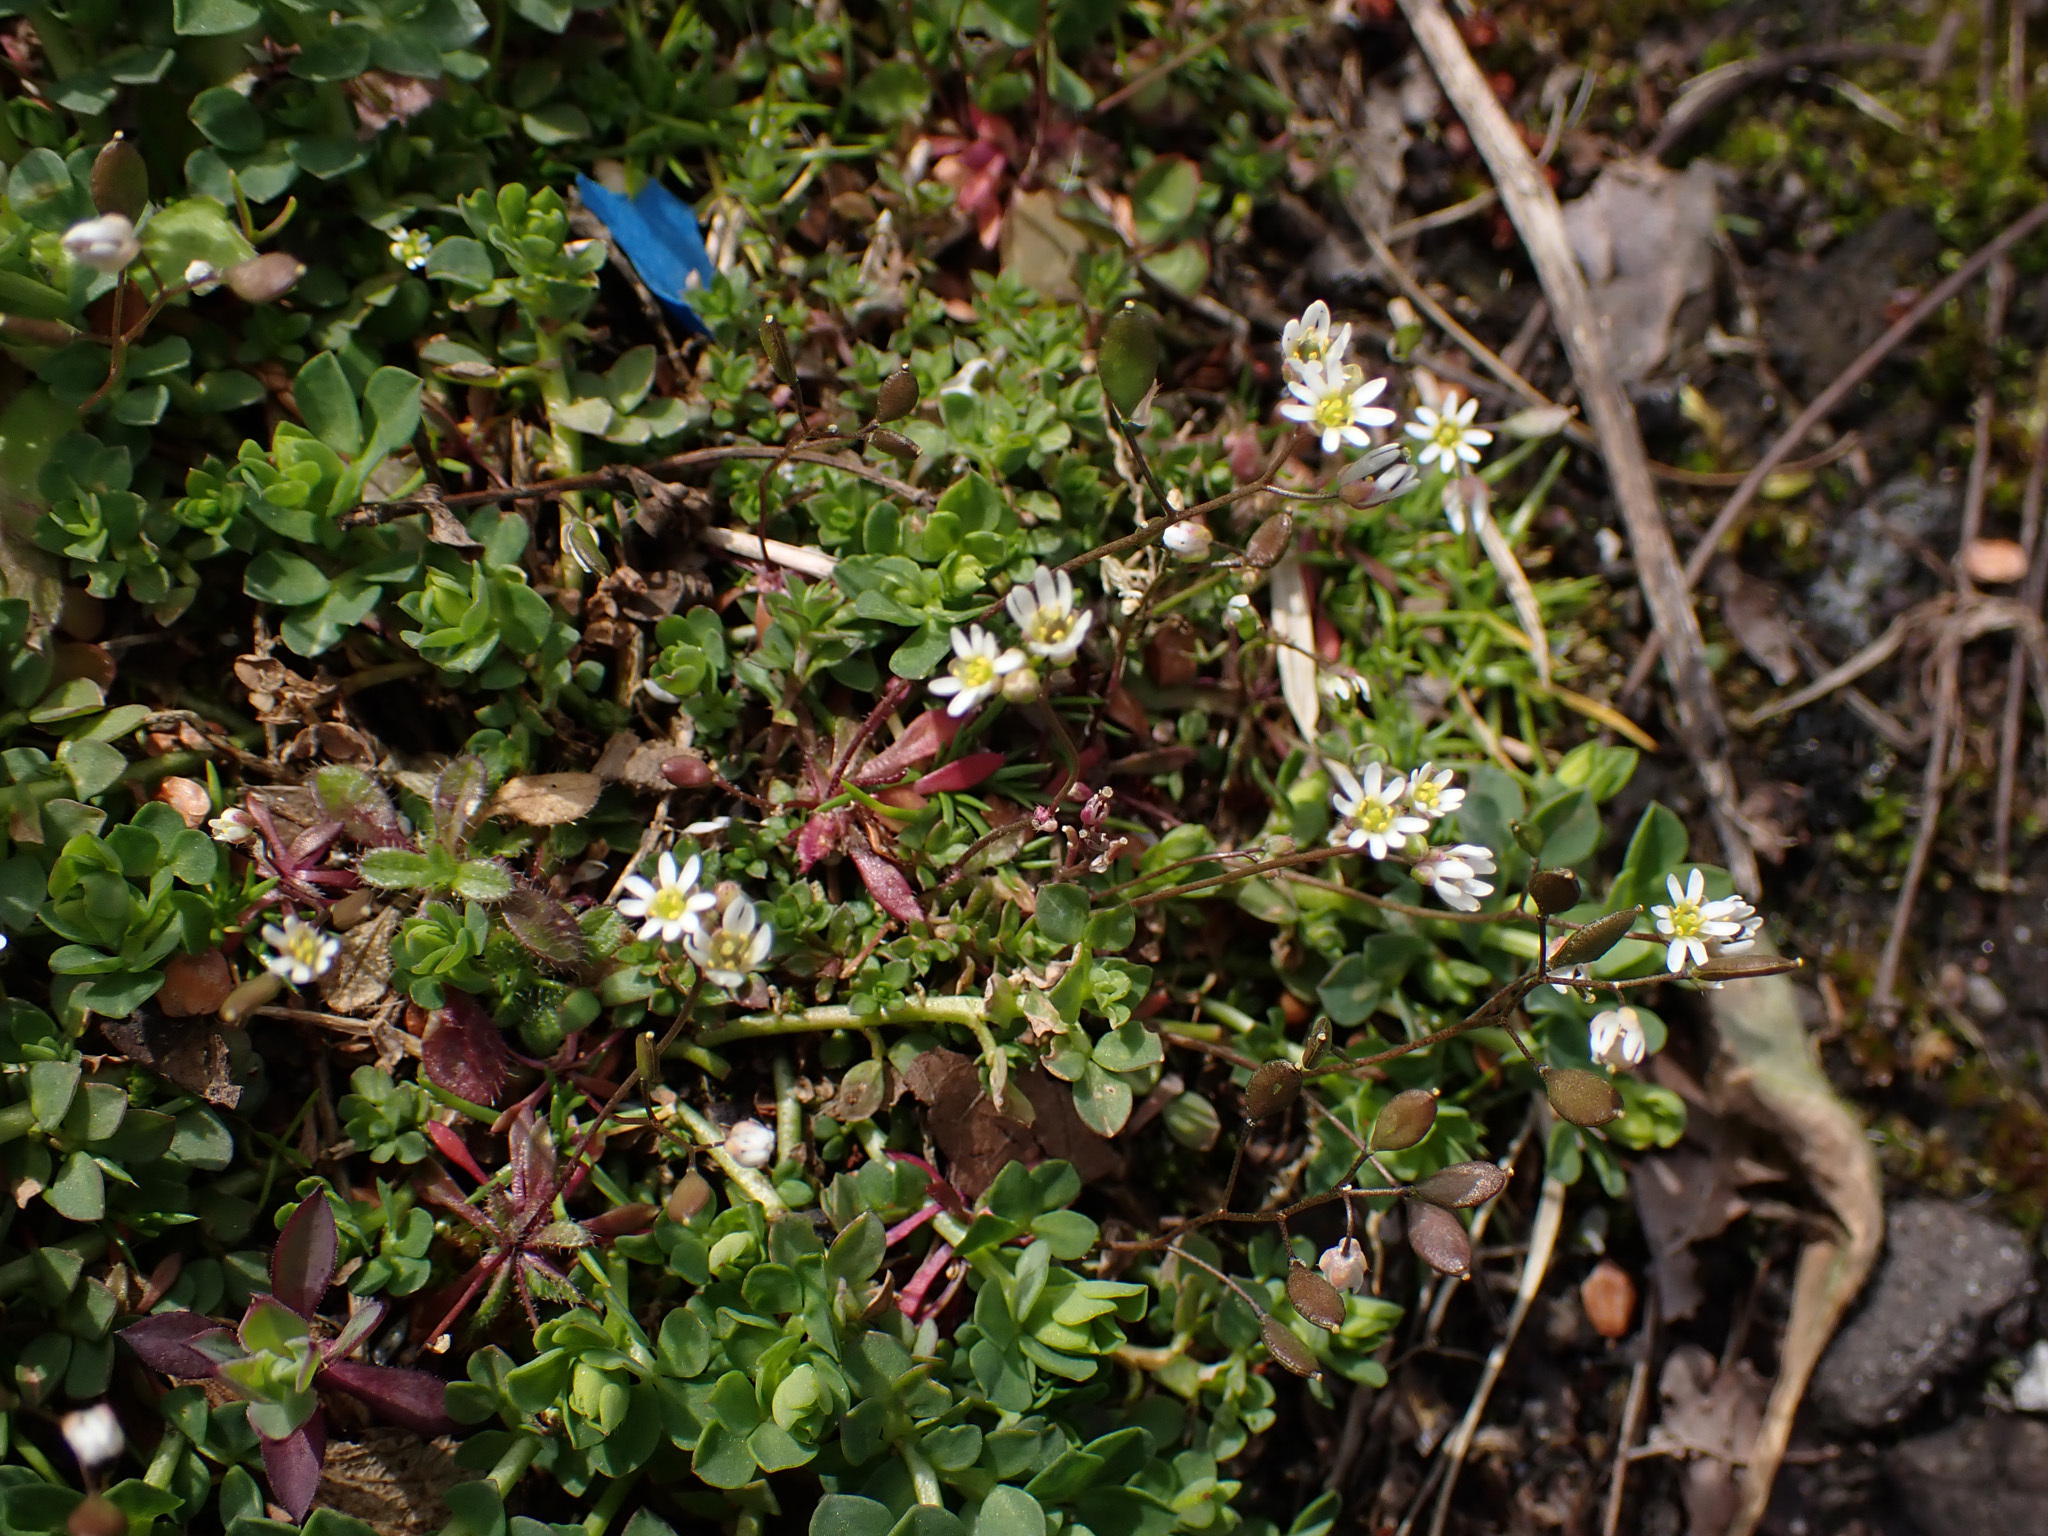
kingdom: Plantae
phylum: Tracheophyta
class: Magnoliopsida
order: Brassicales
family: Brassicaceae
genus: Draba
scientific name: Draba verna
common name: Spring draba
